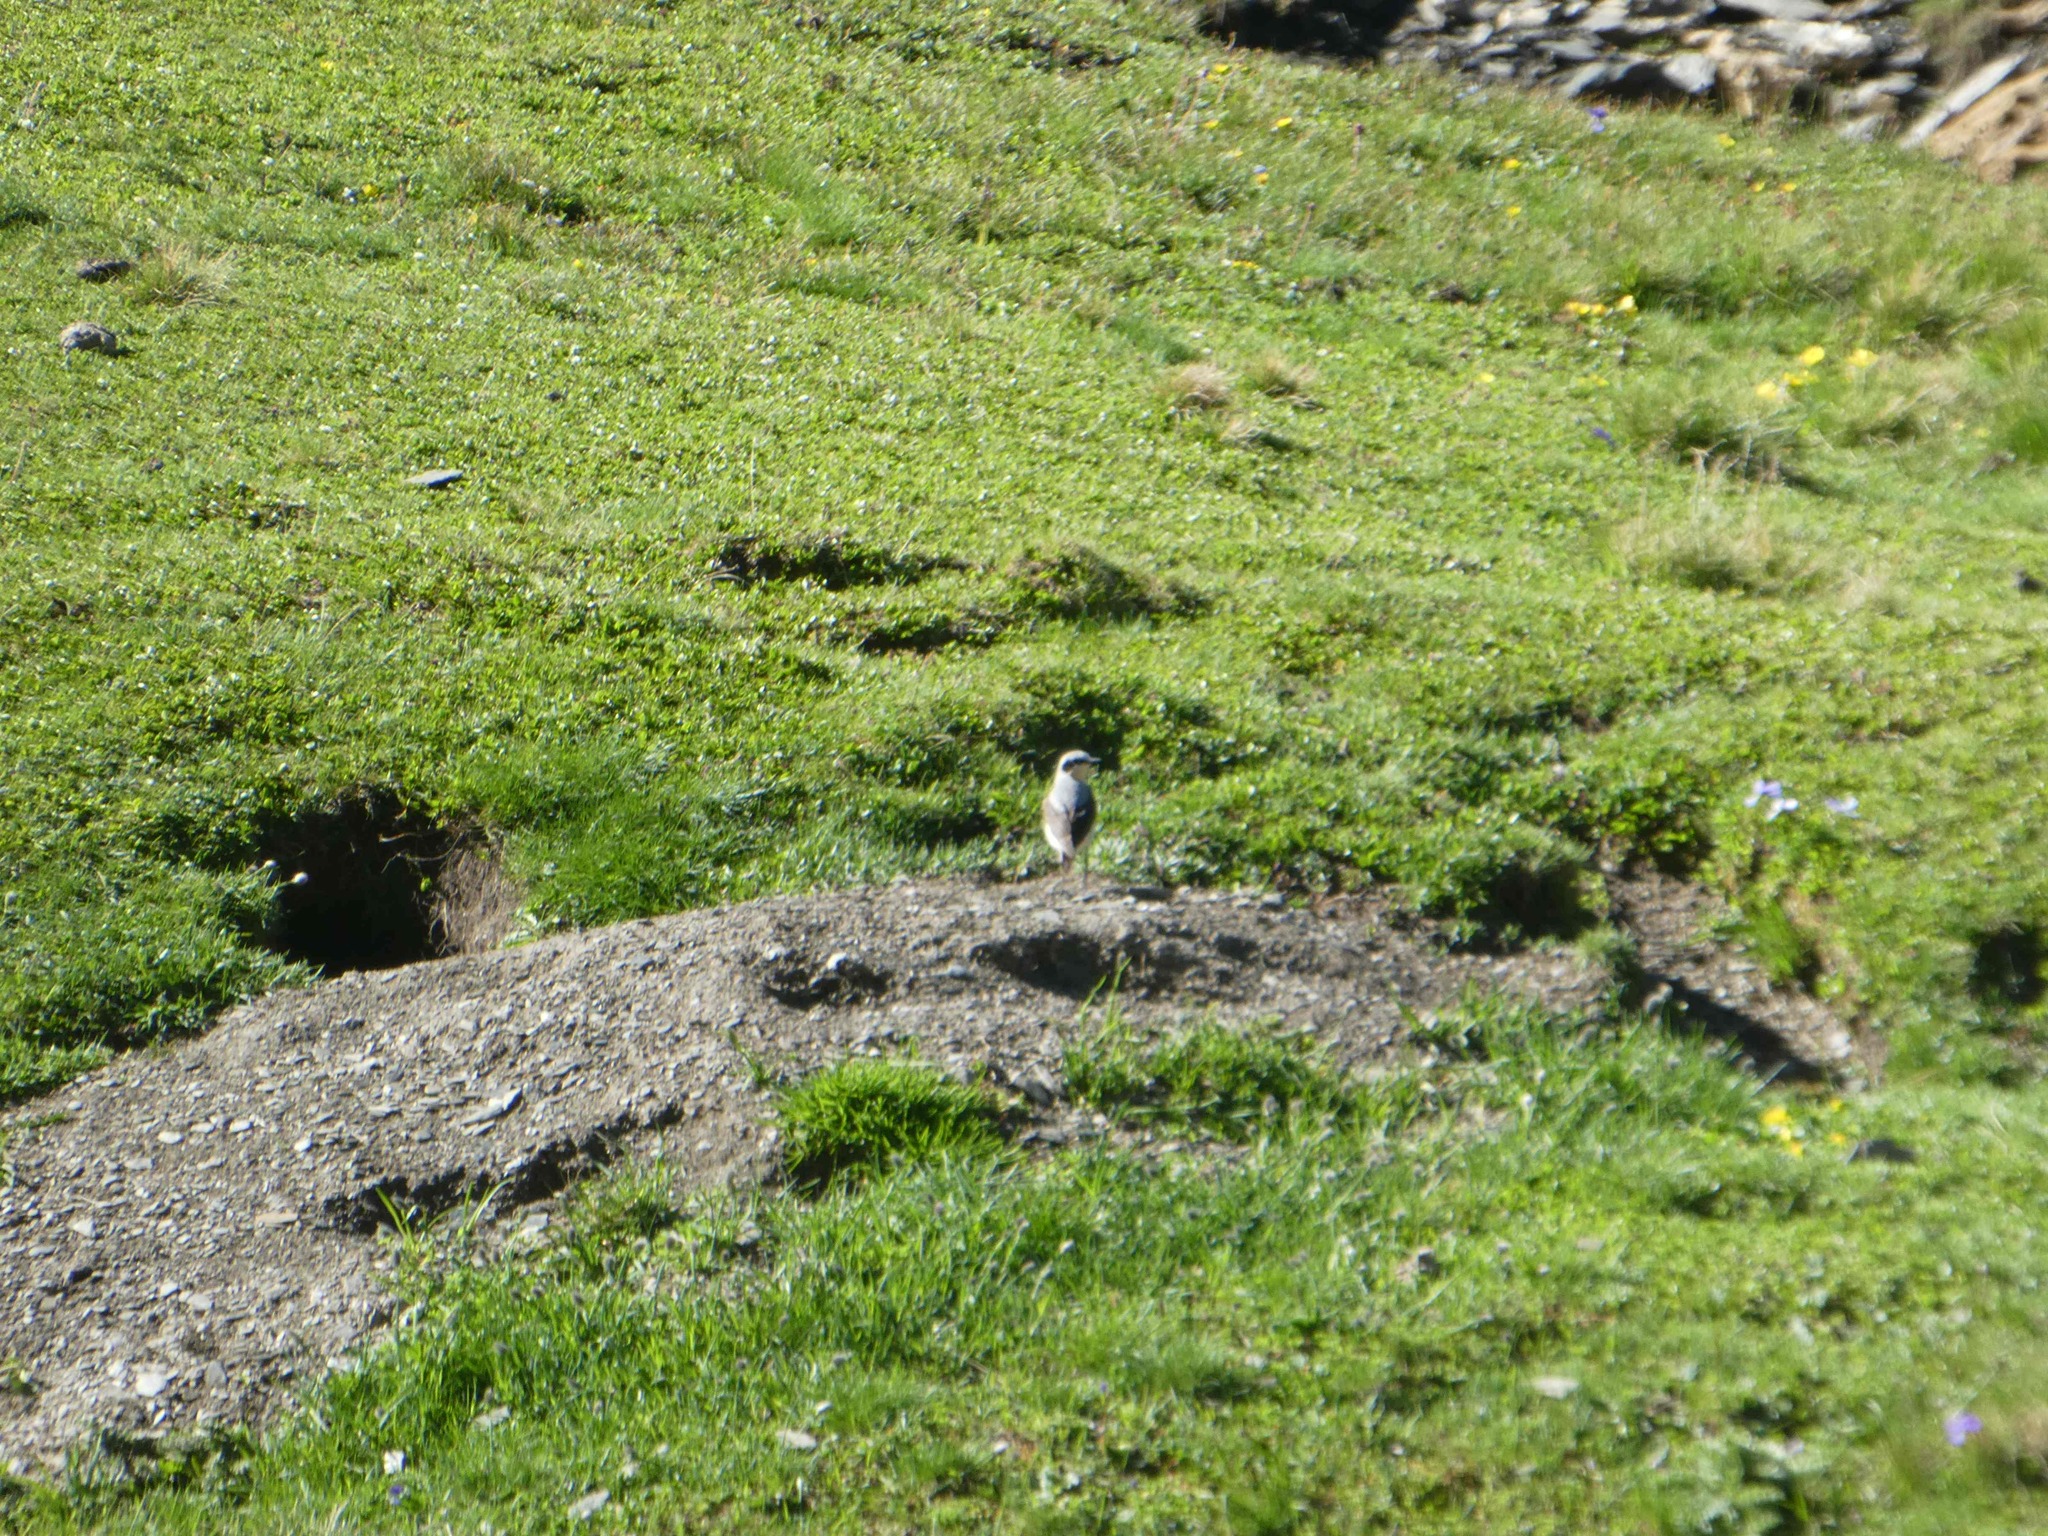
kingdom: Animalia
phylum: Chordata
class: Aves
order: Passeriformes
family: Muscicapidae
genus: Oenanthe
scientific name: Oenanthe oenanthe
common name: Northern wheatear
